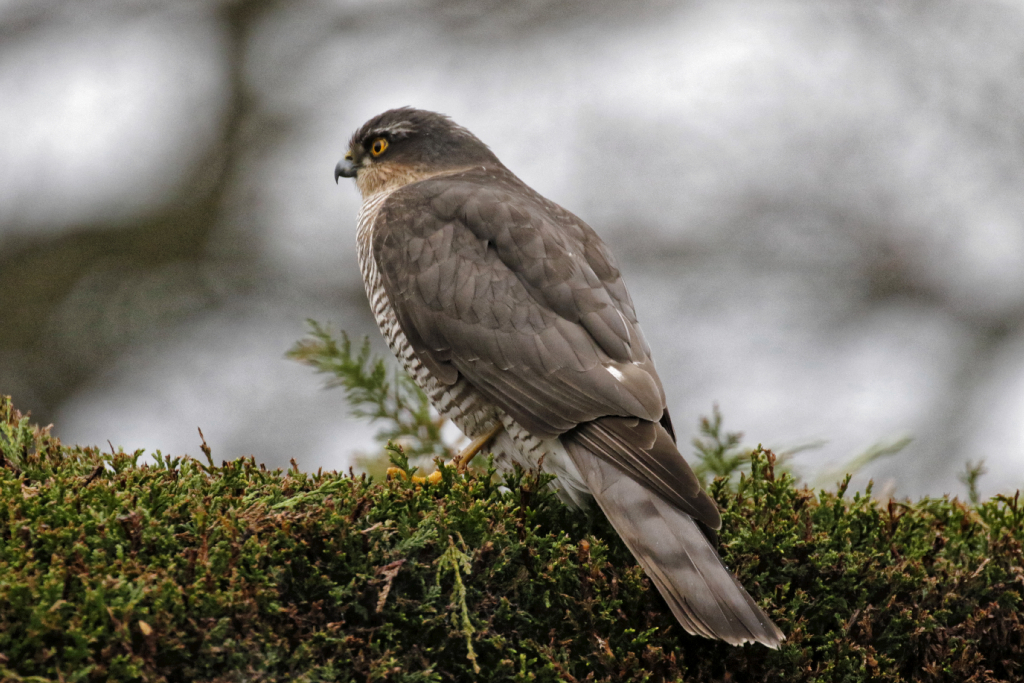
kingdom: Animalia
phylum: Chordata
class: Aves
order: Accipitriformes
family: Accipitridae
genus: Accipiter
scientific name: Accipiter nisus
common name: Eurasian sparrowhawk
